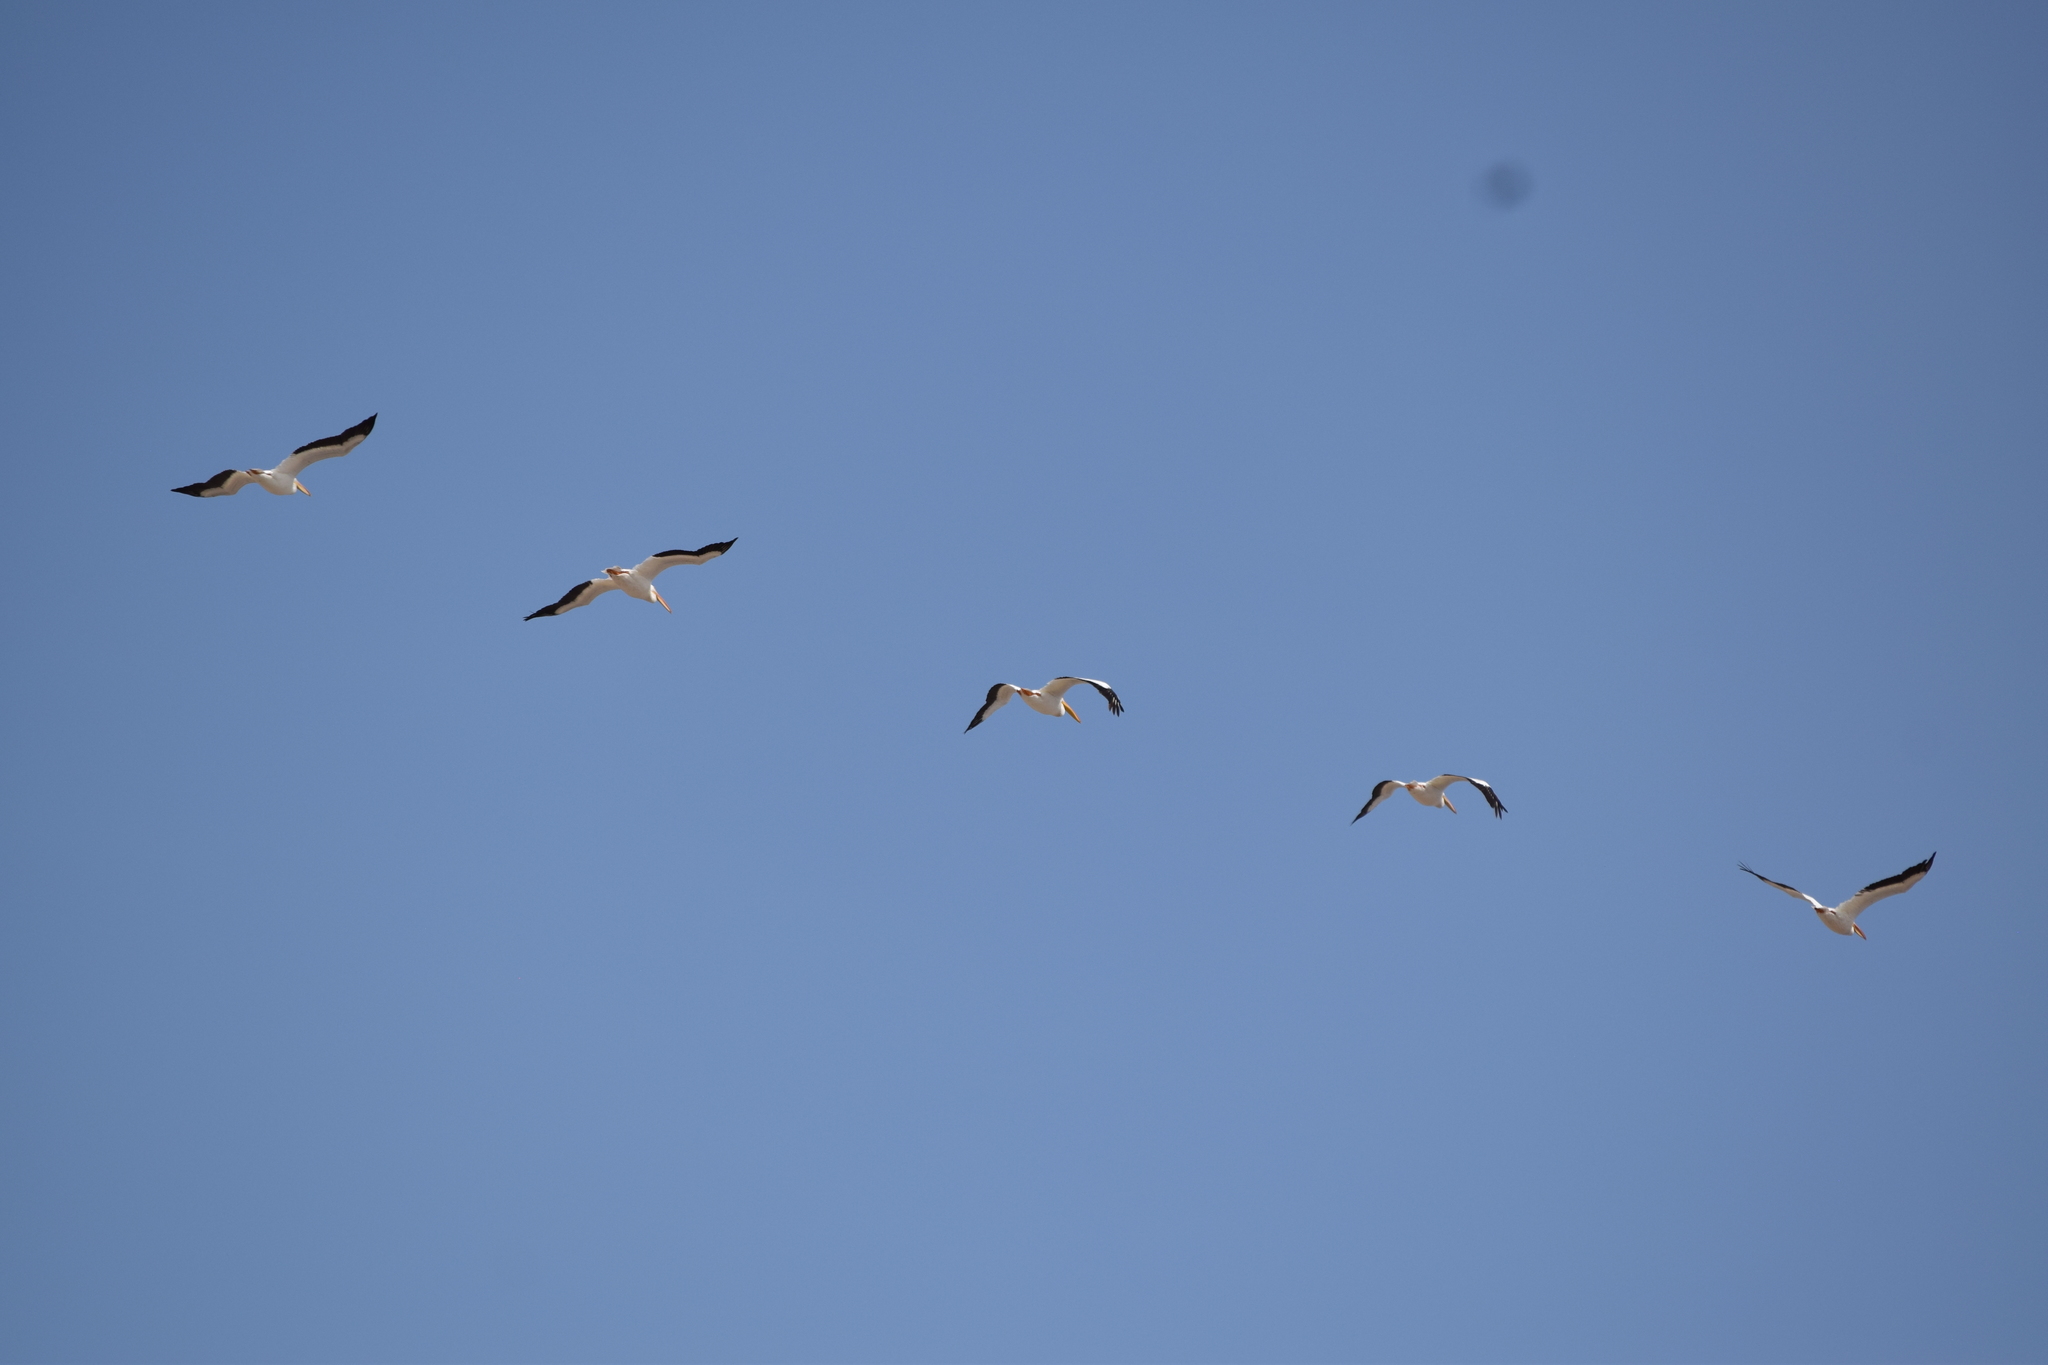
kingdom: Animalia
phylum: Chordata
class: Aves
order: Pelecaniformes
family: Pelecanidae
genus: Pelecanus
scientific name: Pelecanus erythrorhynchos
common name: American white pelican
